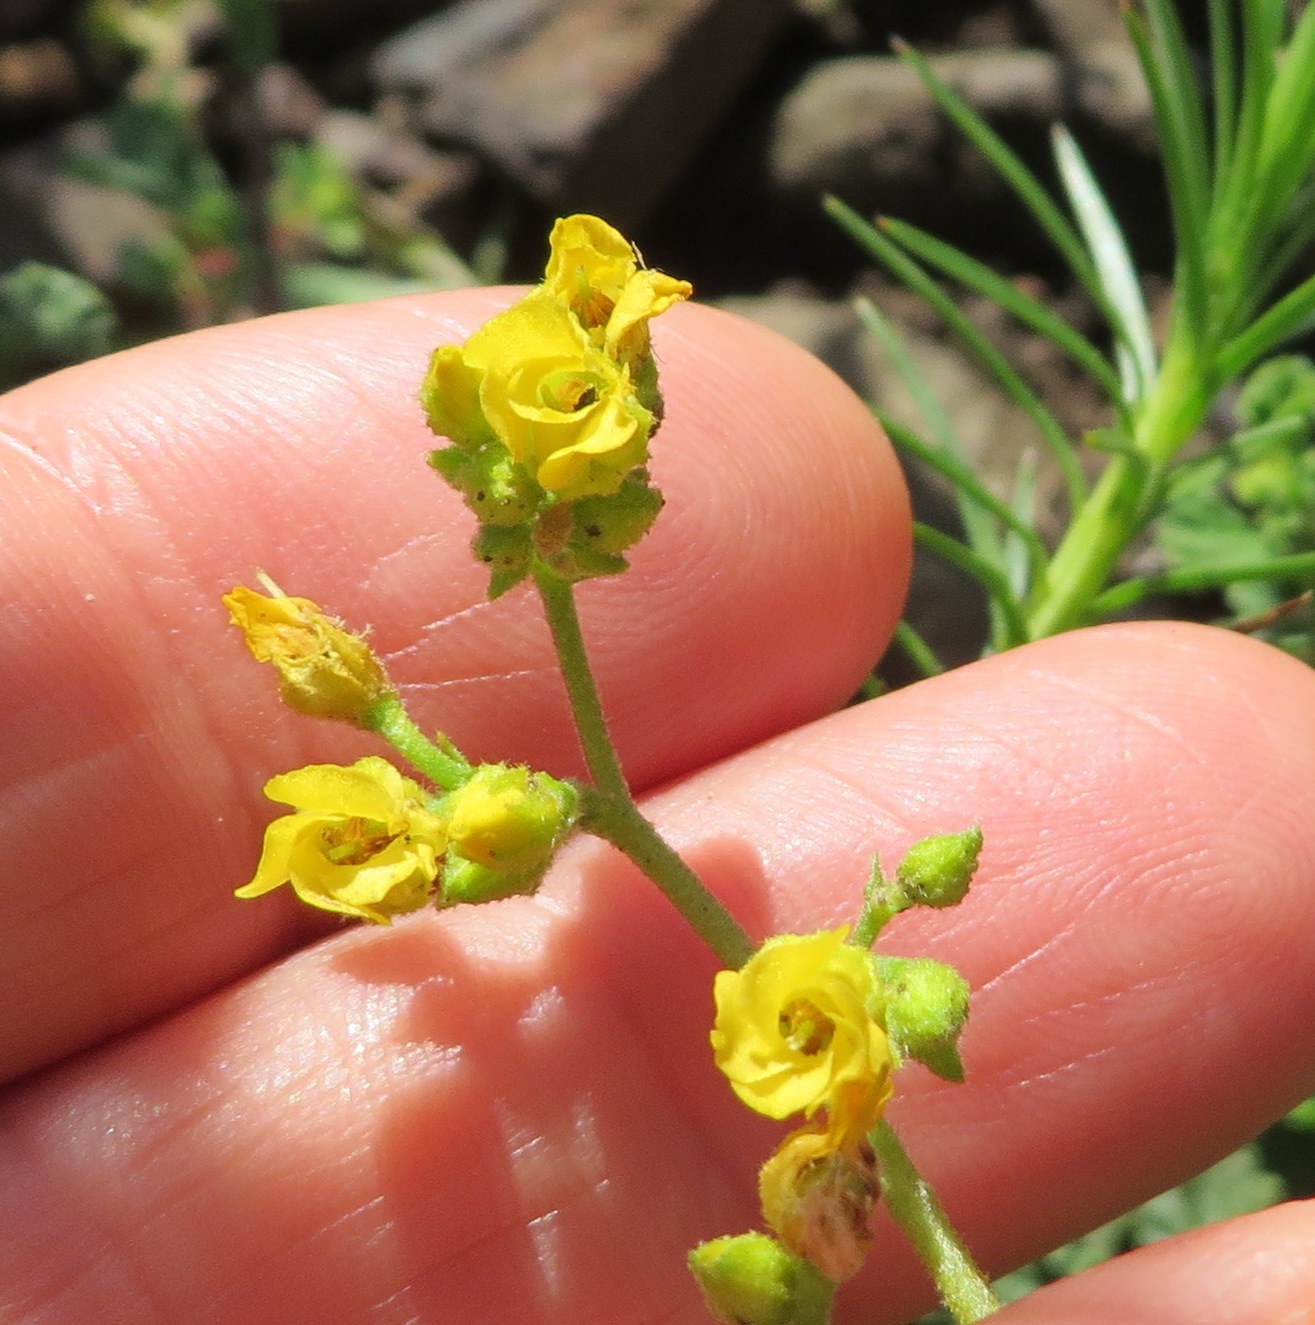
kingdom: Plantae
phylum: Tracheophyta
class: Magnoliopsida
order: Malvales
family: Malvaceae
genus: Hermannia
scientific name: Hermannia alnifolia
